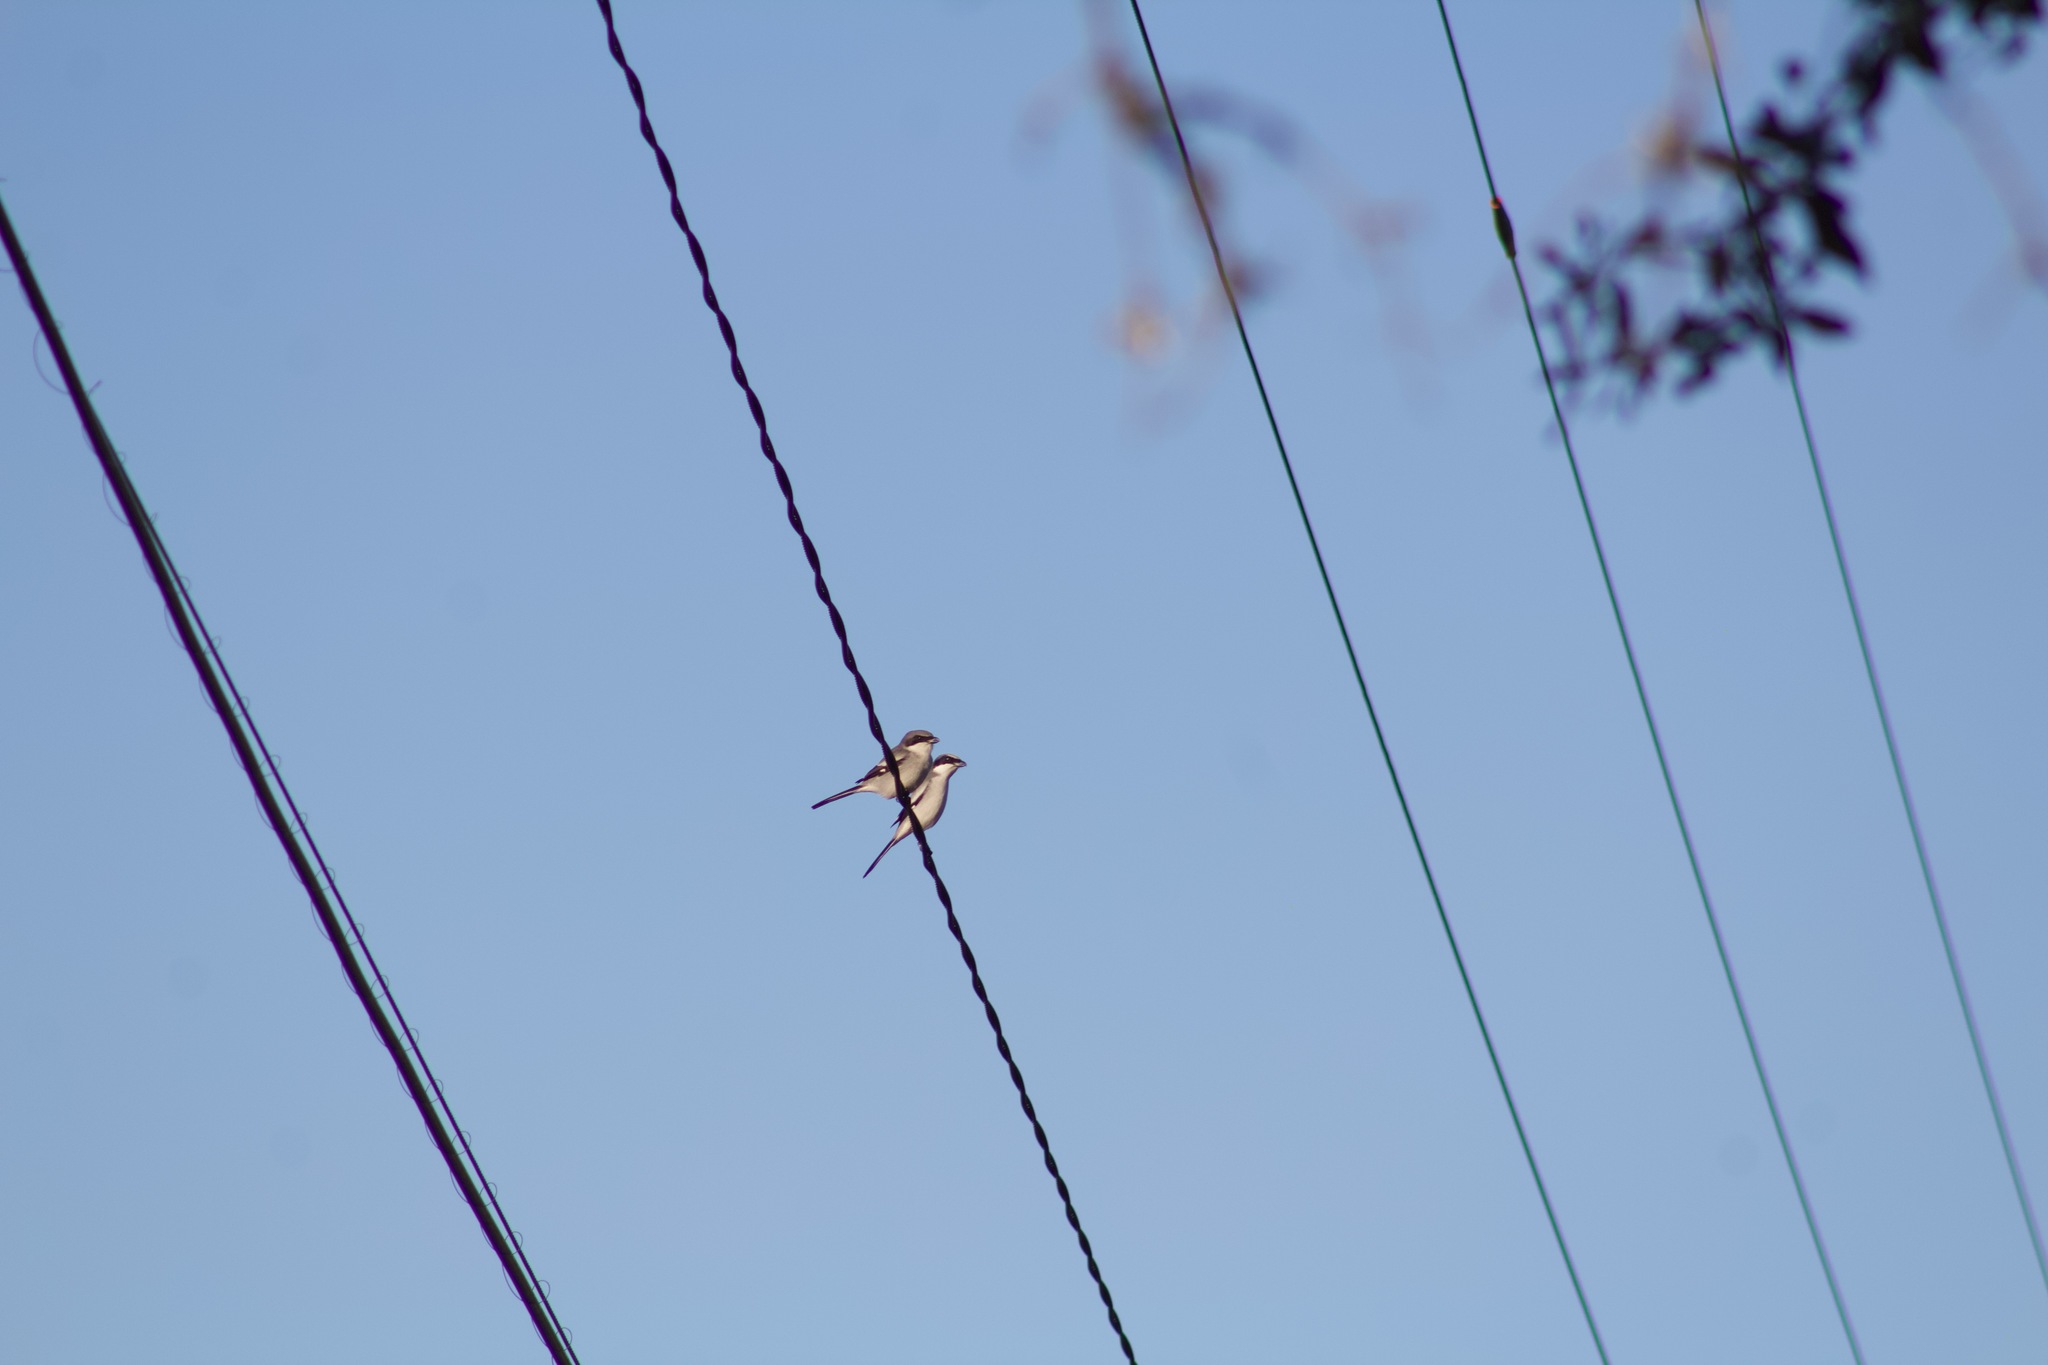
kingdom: Animalia
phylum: Chordata
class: Aves
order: Passeriformes
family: Laniidae
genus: Lanius
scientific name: Lanius ludovicianus
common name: Loggerhead shrike
